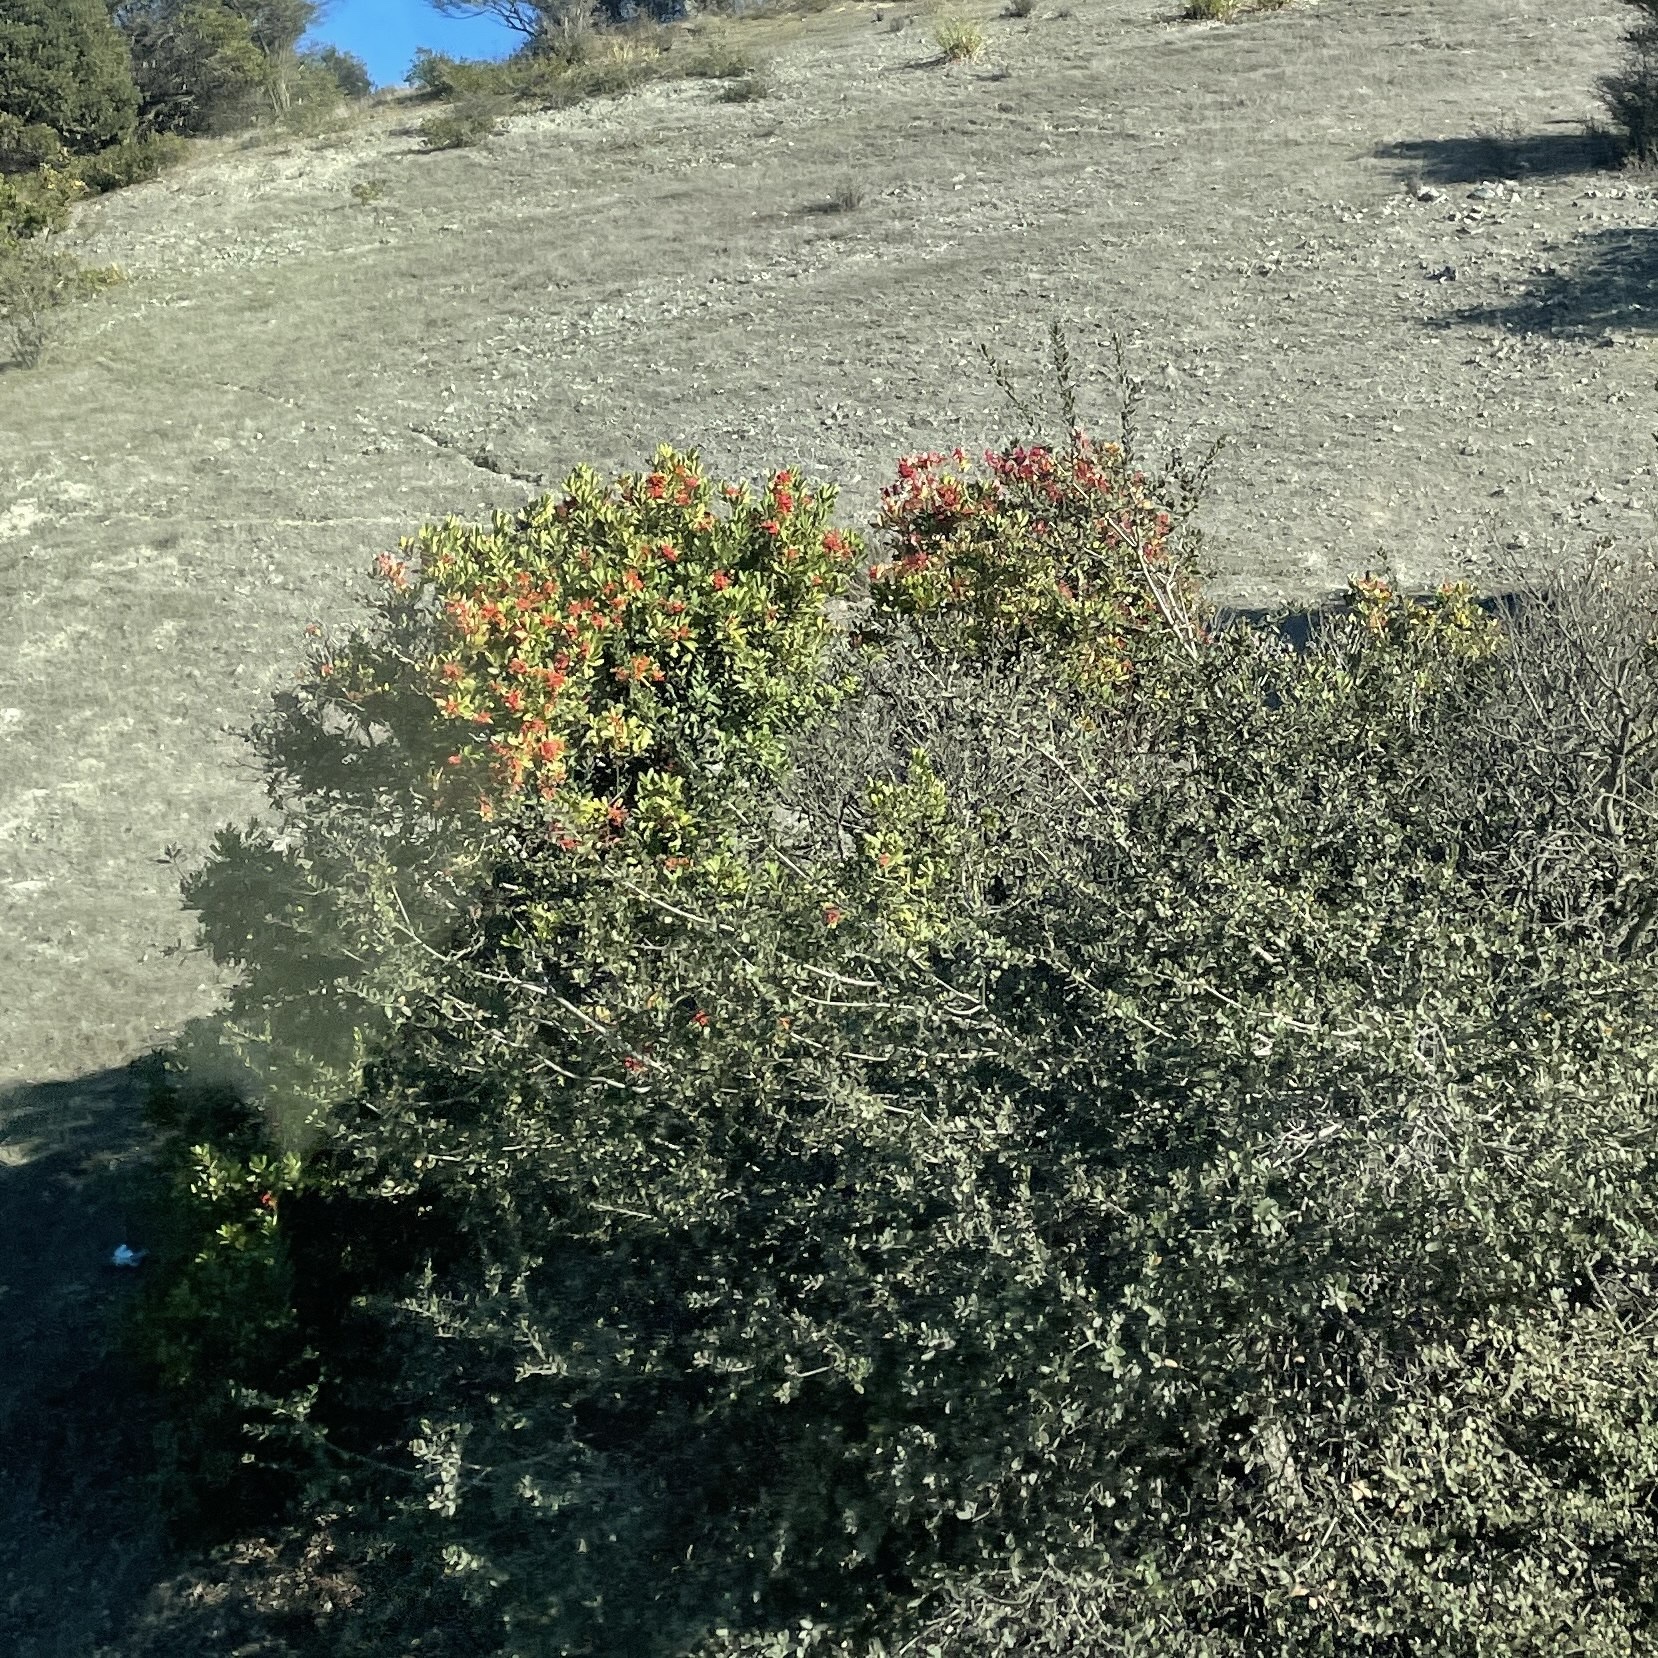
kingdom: Plantae
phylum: Tracheophyta
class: Magnoliopsida
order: Rosales
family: Rosaceae
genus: Heteromeles
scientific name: Heteromeles arbutifolia
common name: California-holly
